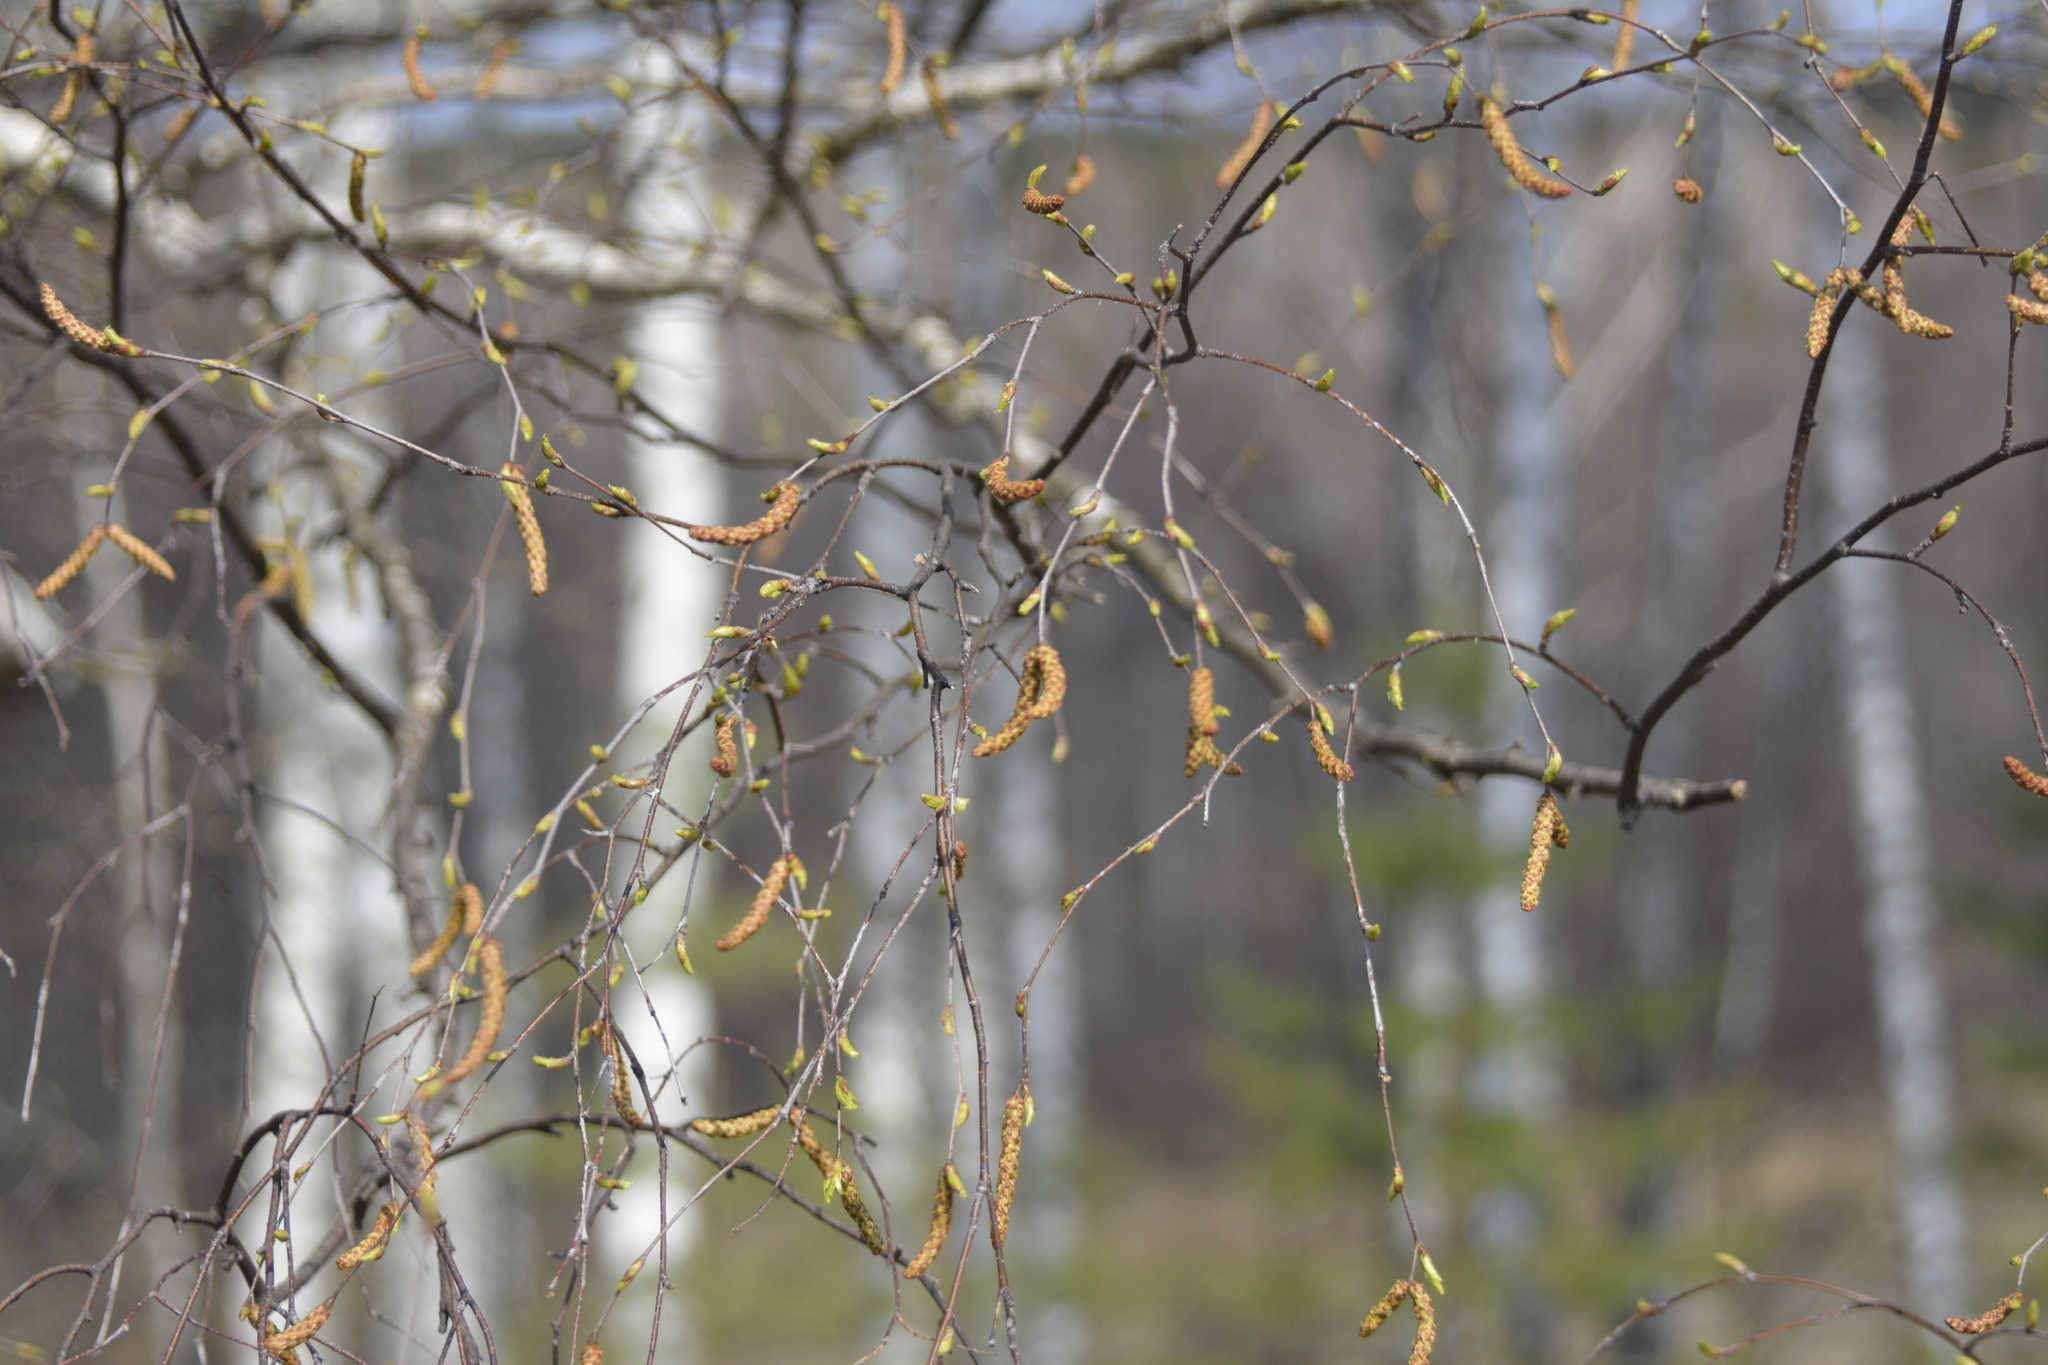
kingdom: Plantae
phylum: Tracheophyta
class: Magnoliopsida
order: Fagales
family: Betulaceae
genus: Betula
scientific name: Betula pendula
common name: Silver birch
